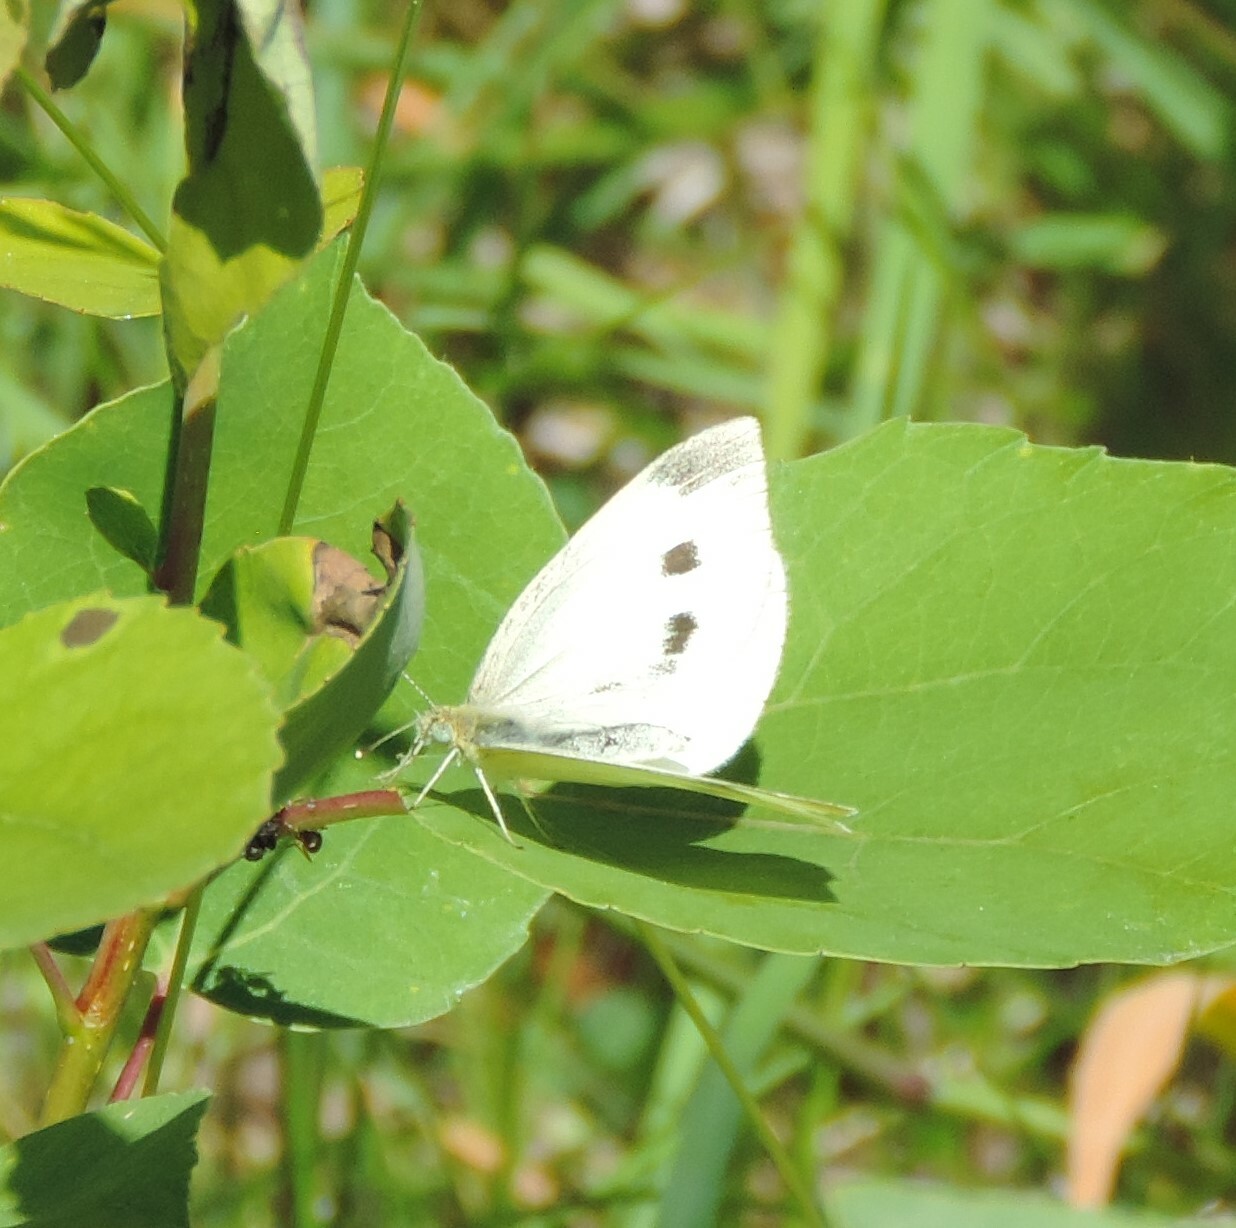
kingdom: Animalia
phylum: Arthropoda
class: Insecta
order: Lepidoptera
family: Pieridae
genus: Pieris
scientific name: Pieris rapae
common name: Small white
